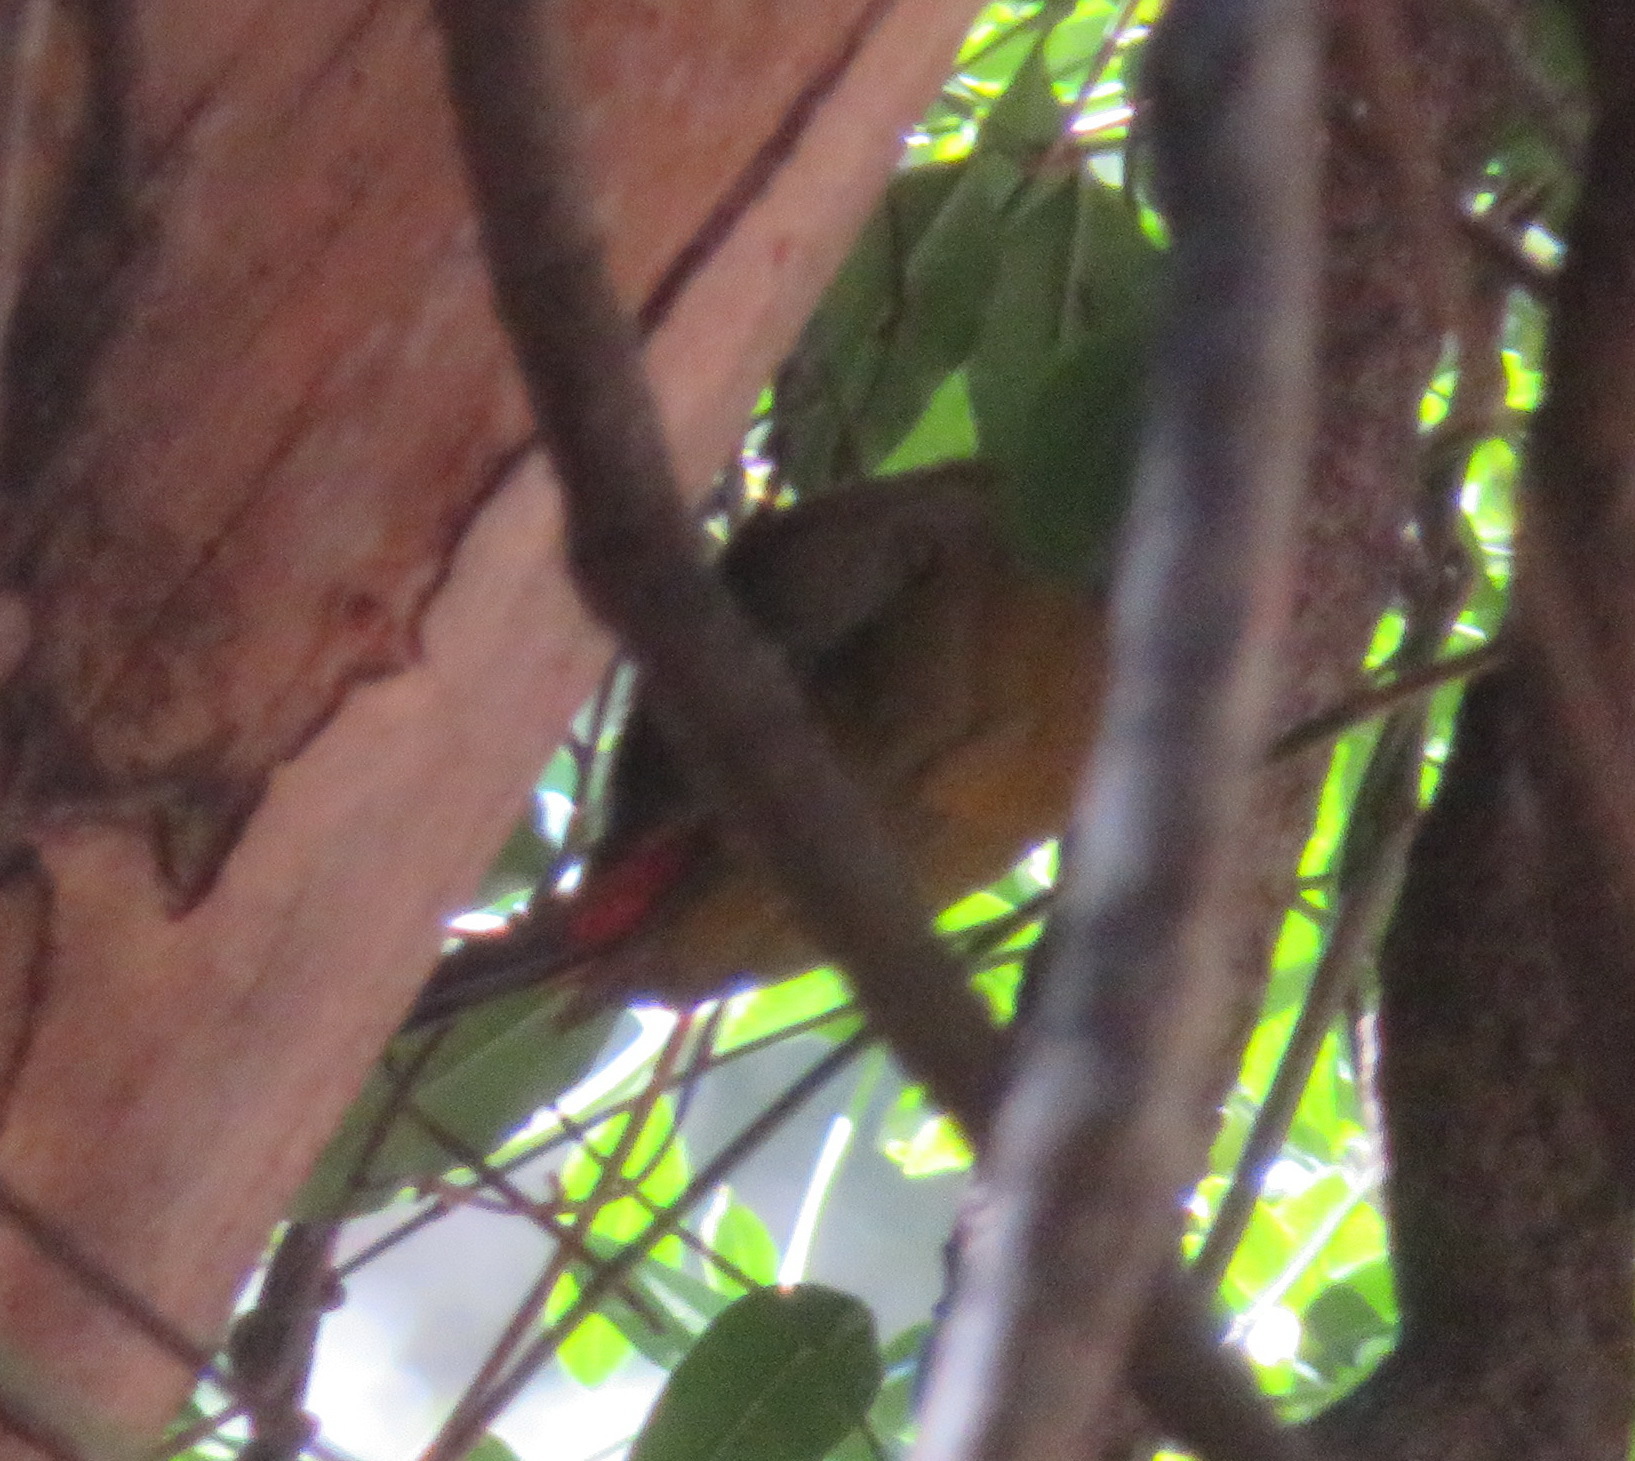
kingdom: Animalia
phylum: Chordata
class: Aves
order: Piciformes
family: Picidae
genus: Dendropicos
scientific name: Dendropicos griseocephalus
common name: Olive woodpecker
